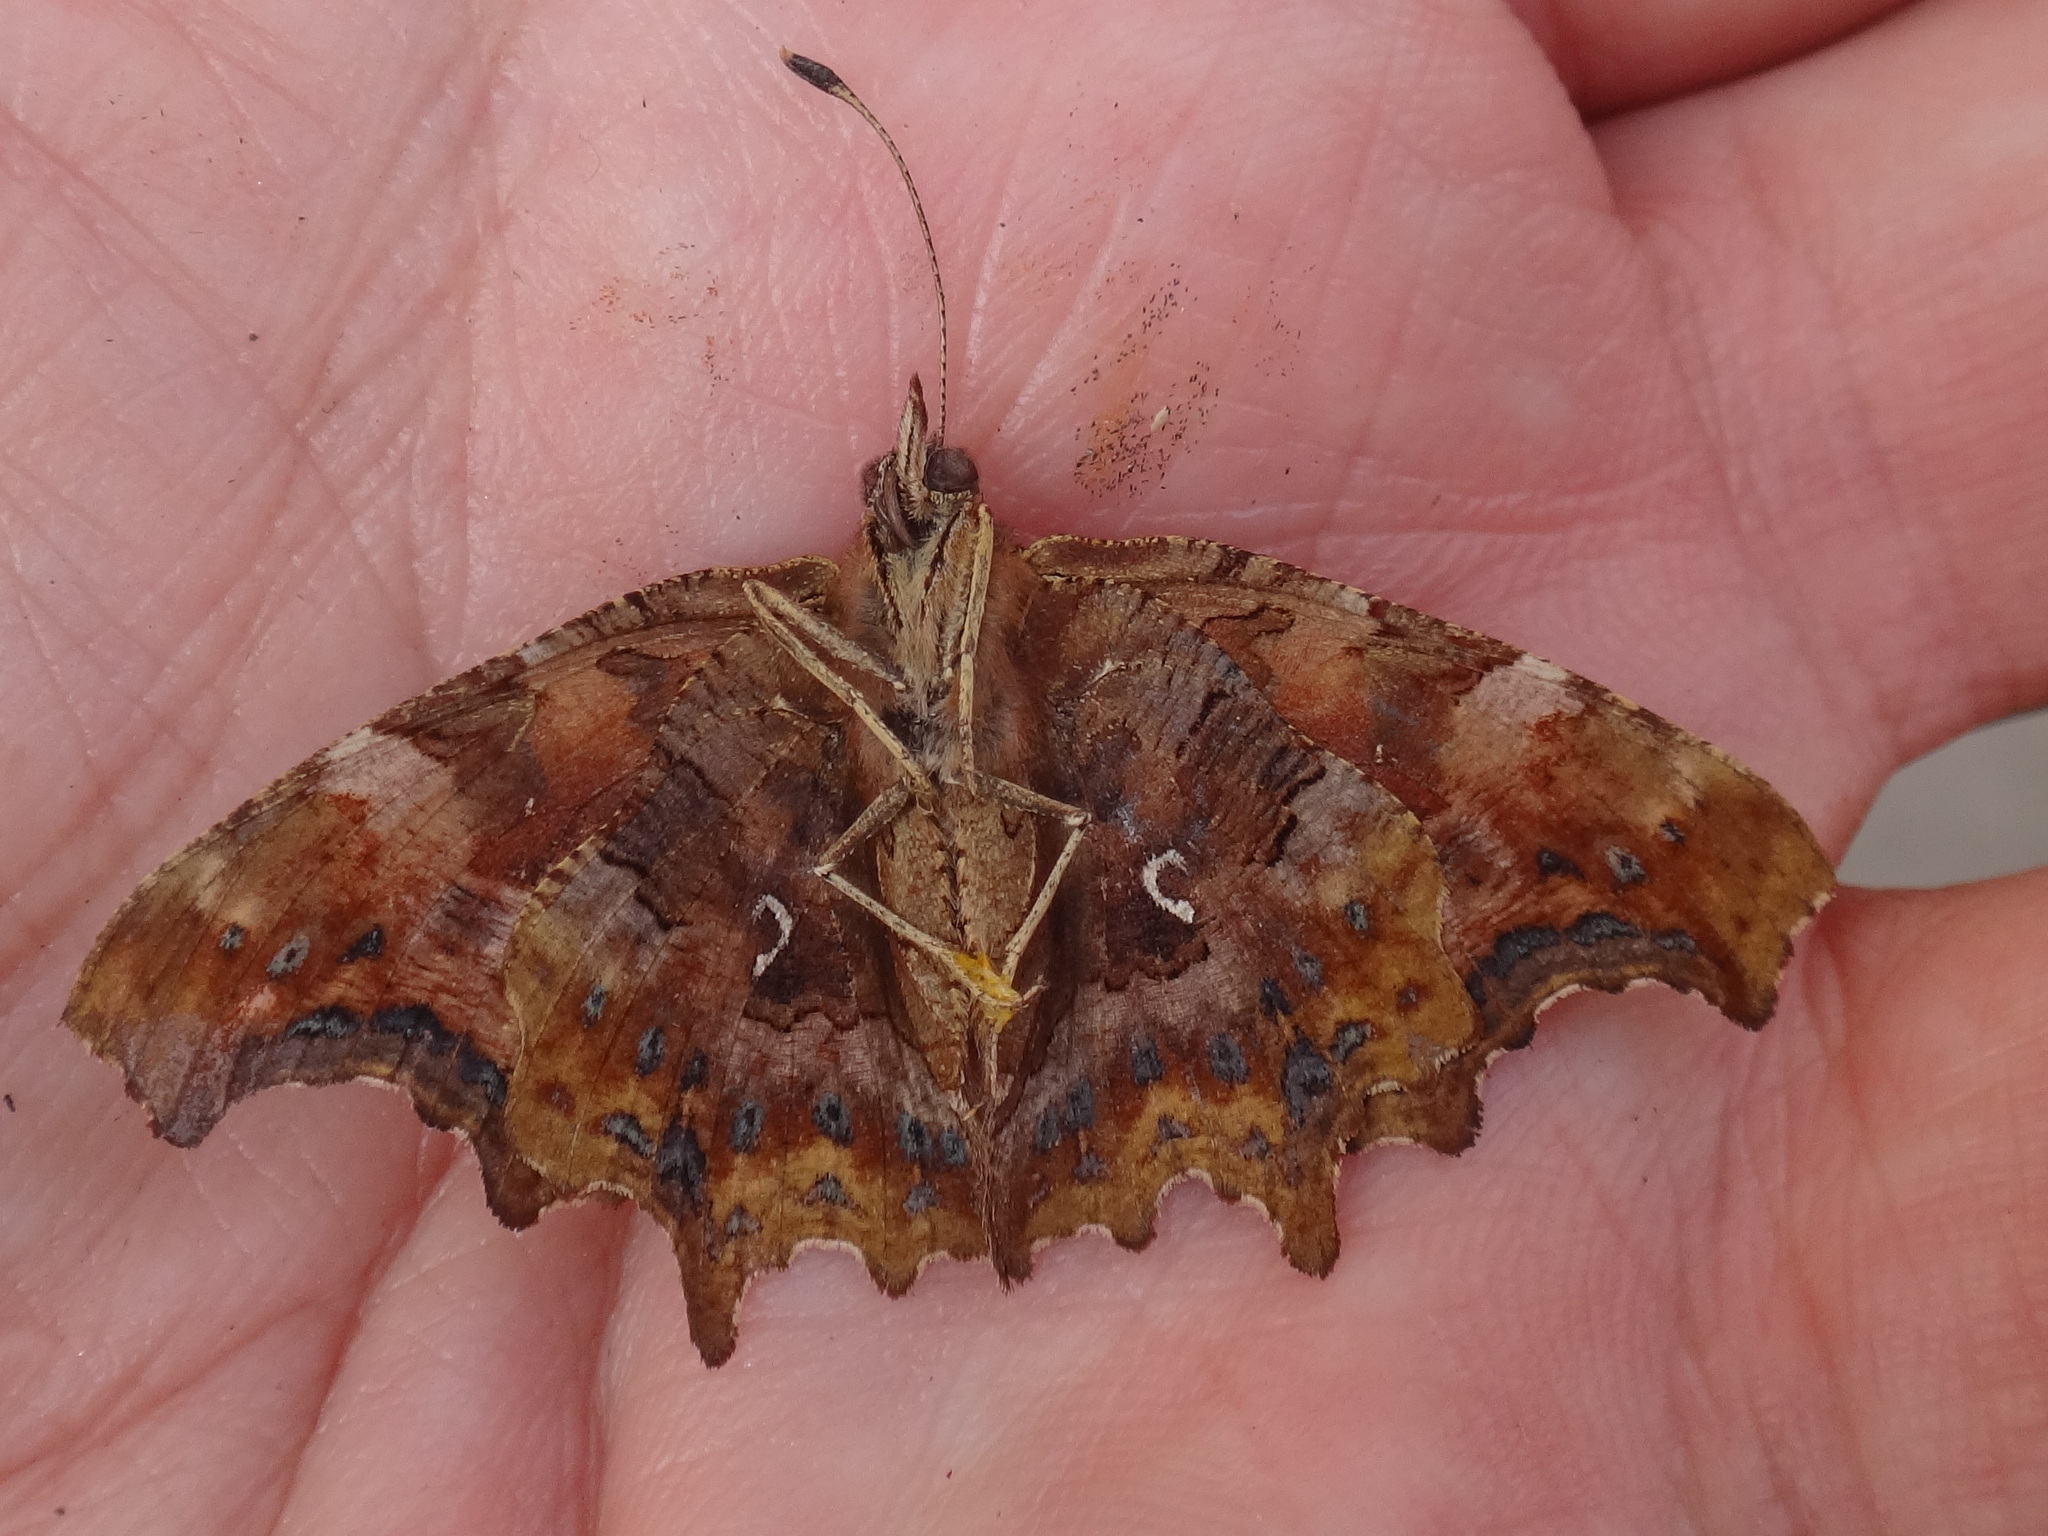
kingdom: Animalia
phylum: Arthropoda
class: Insecta
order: Lepidoptera
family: Nymphalidae
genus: Polygonia
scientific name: Polygonia c-album
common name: Comma
